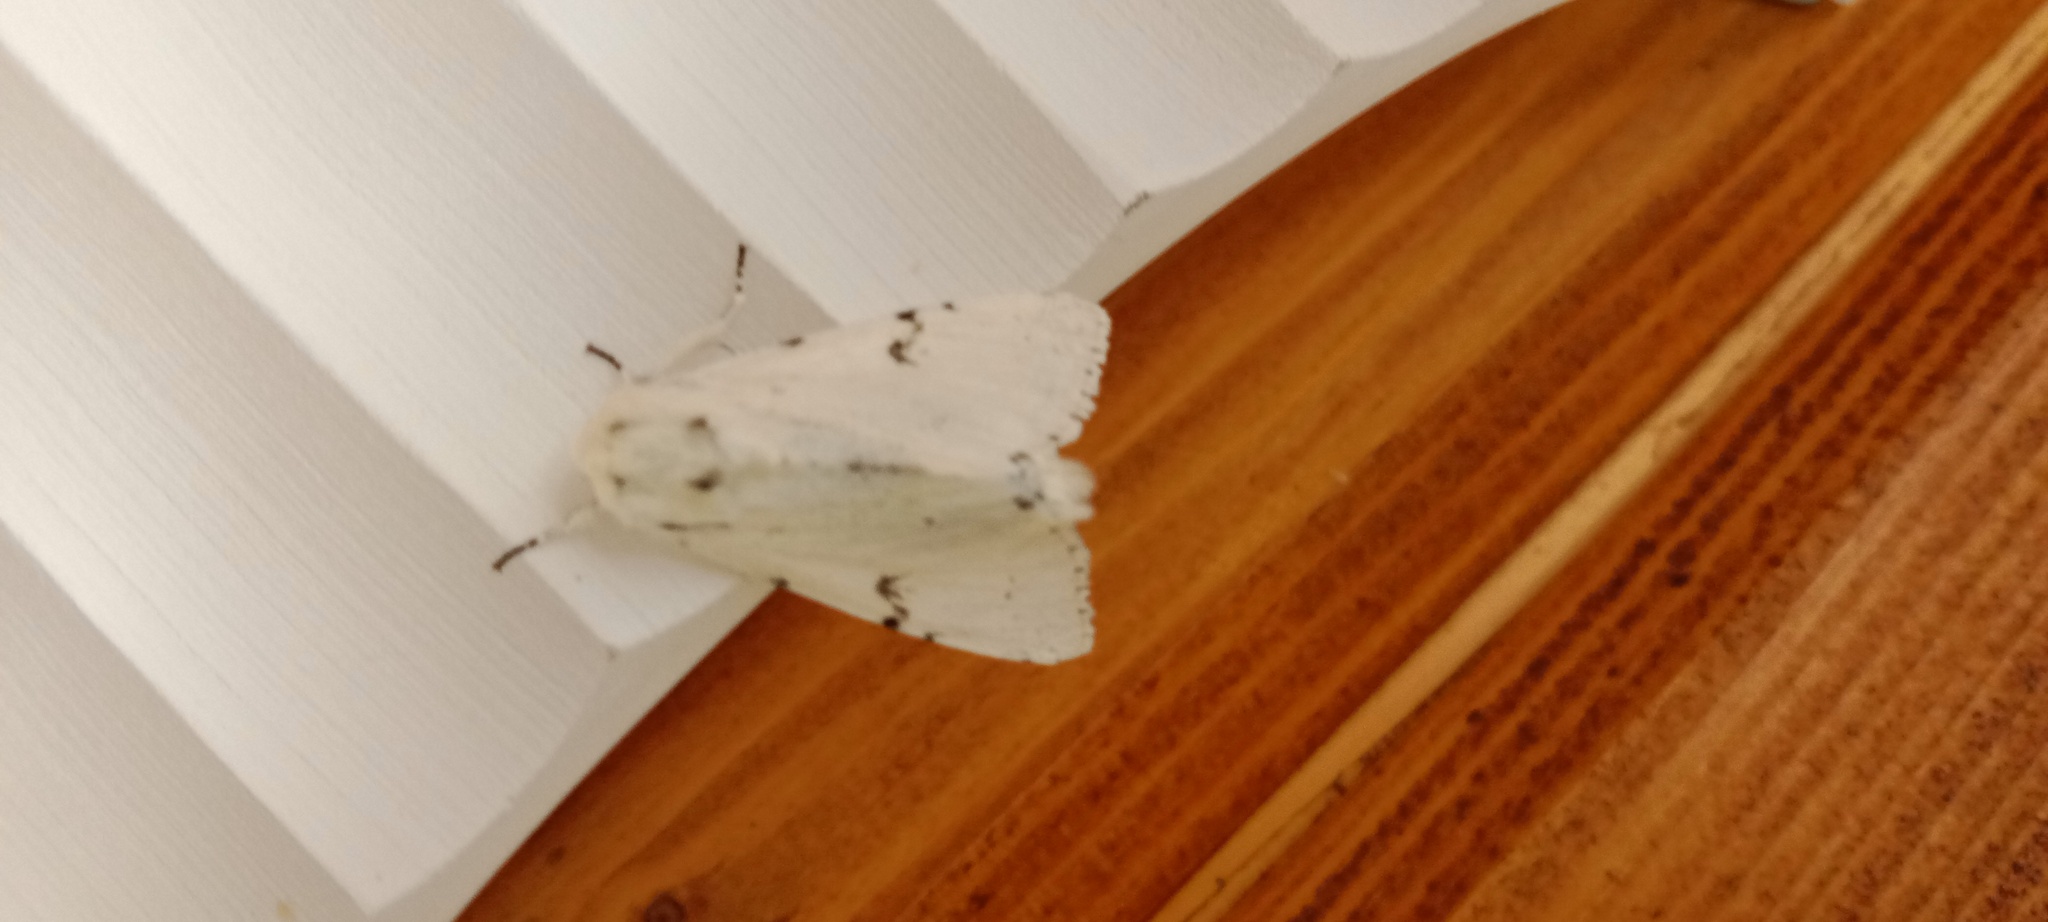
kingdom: Animalia
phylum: Arthropoda
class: Insecta
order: Lepidoptera
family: Noctuidae
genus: Acronicta
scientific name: Acronicta leporina
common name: Miller
